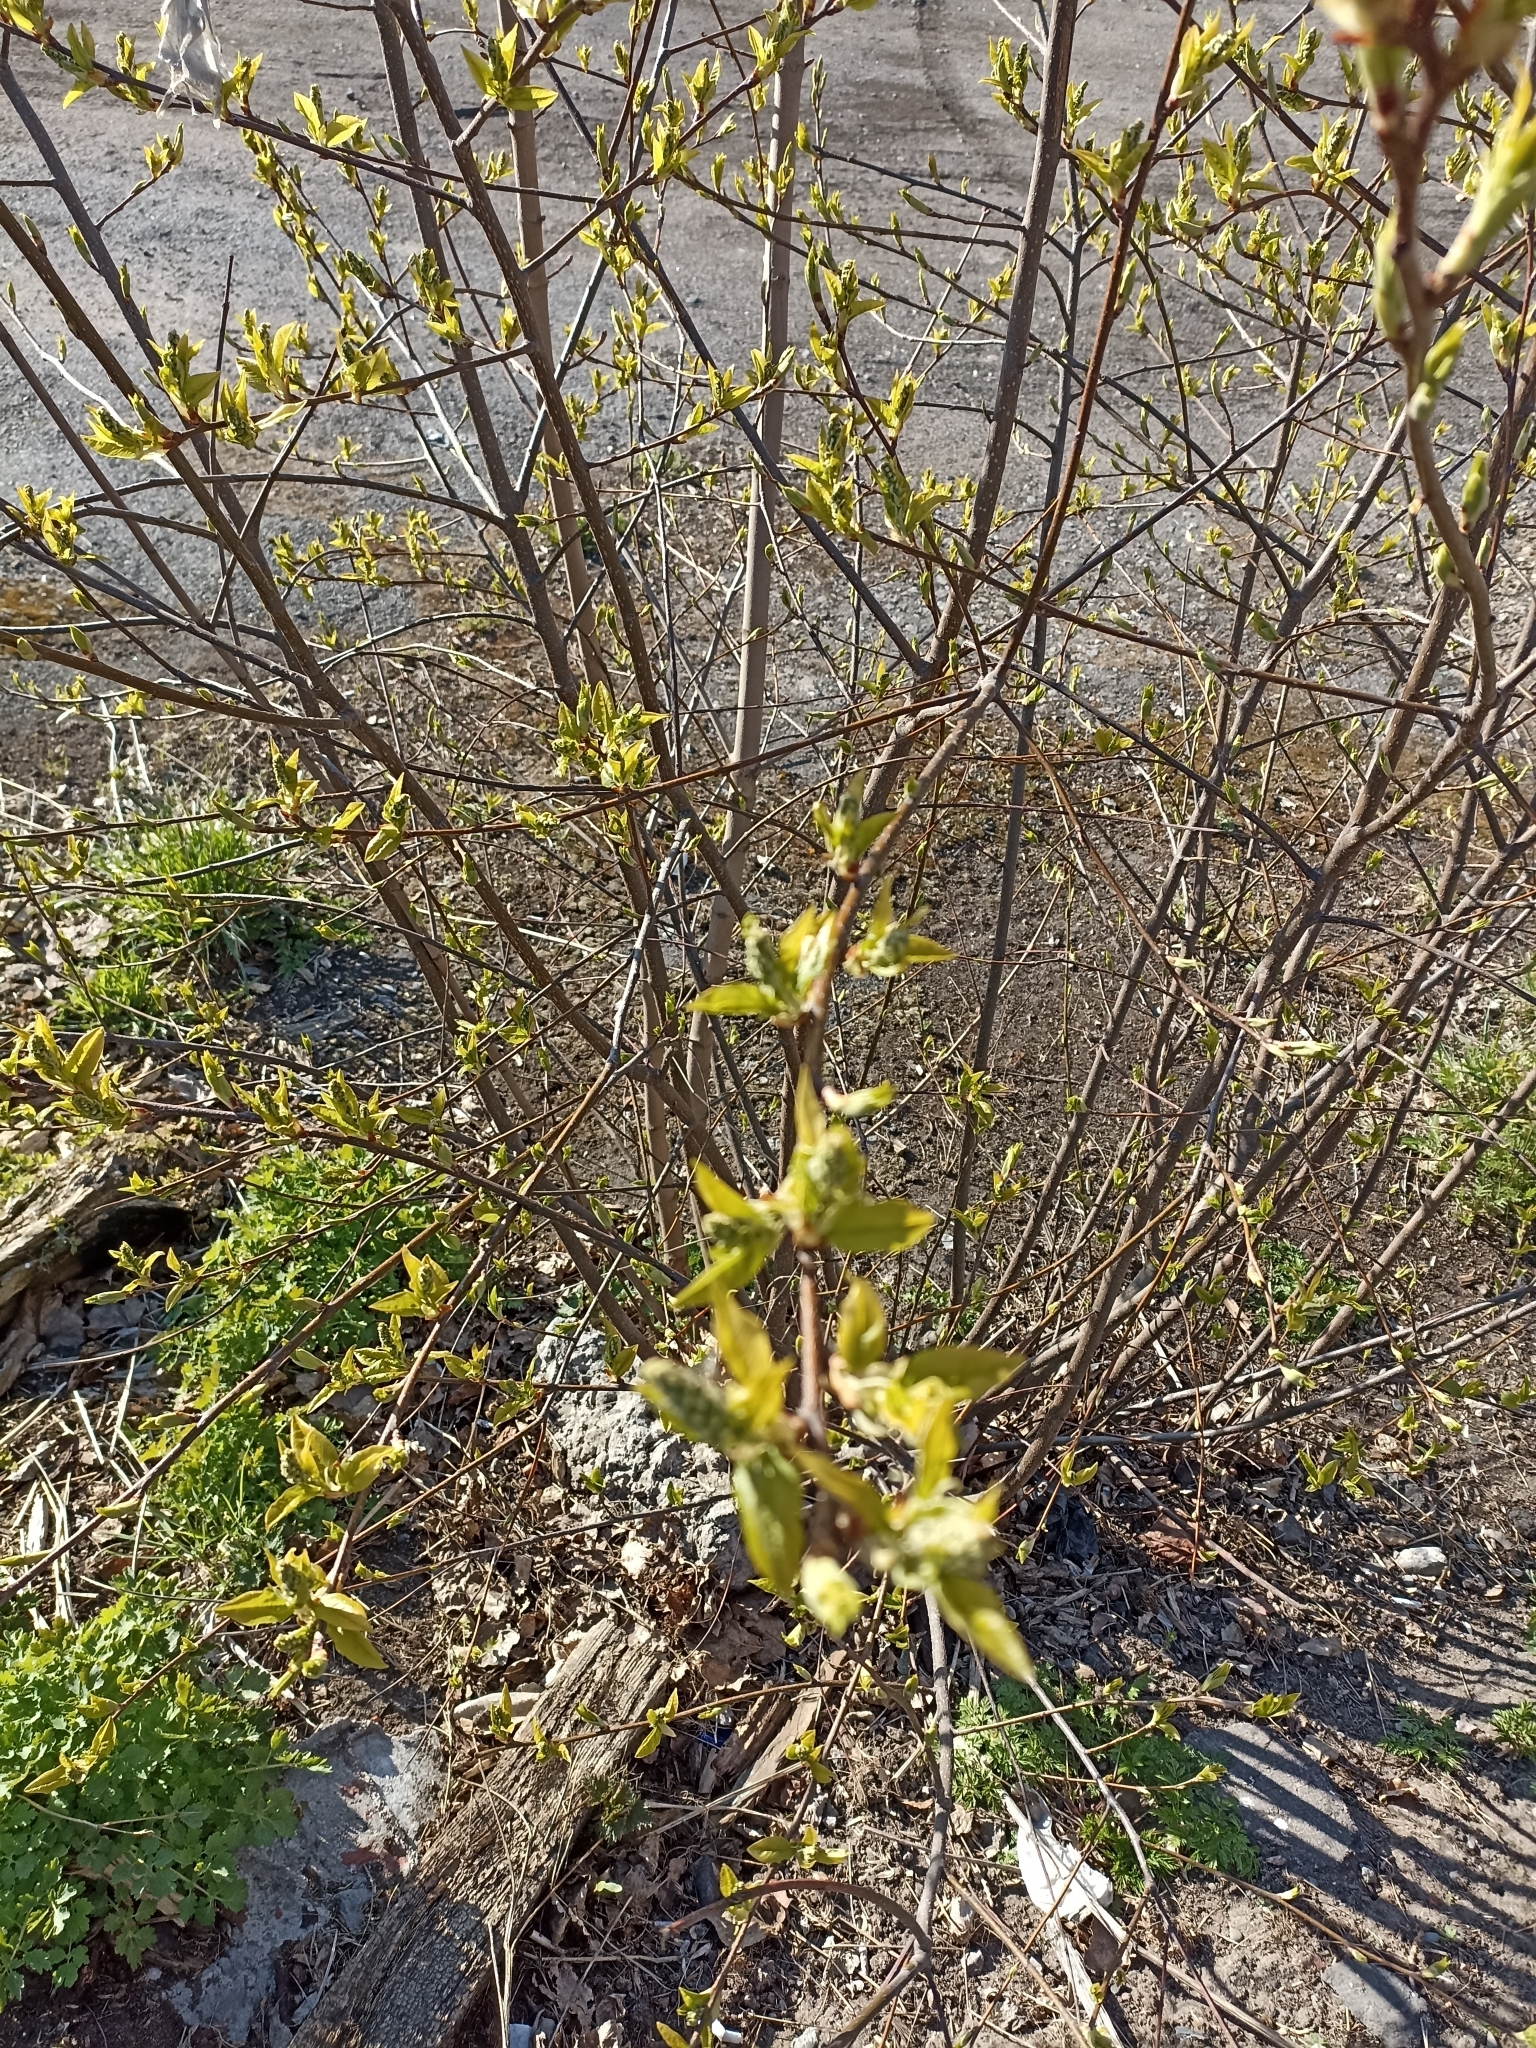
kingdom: Plantae
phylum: Tracheophyta
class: Magnoliopsida
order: Rosales
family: Rosaceae
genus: Prunus
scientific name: Prunus padus
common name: Bird cherry
